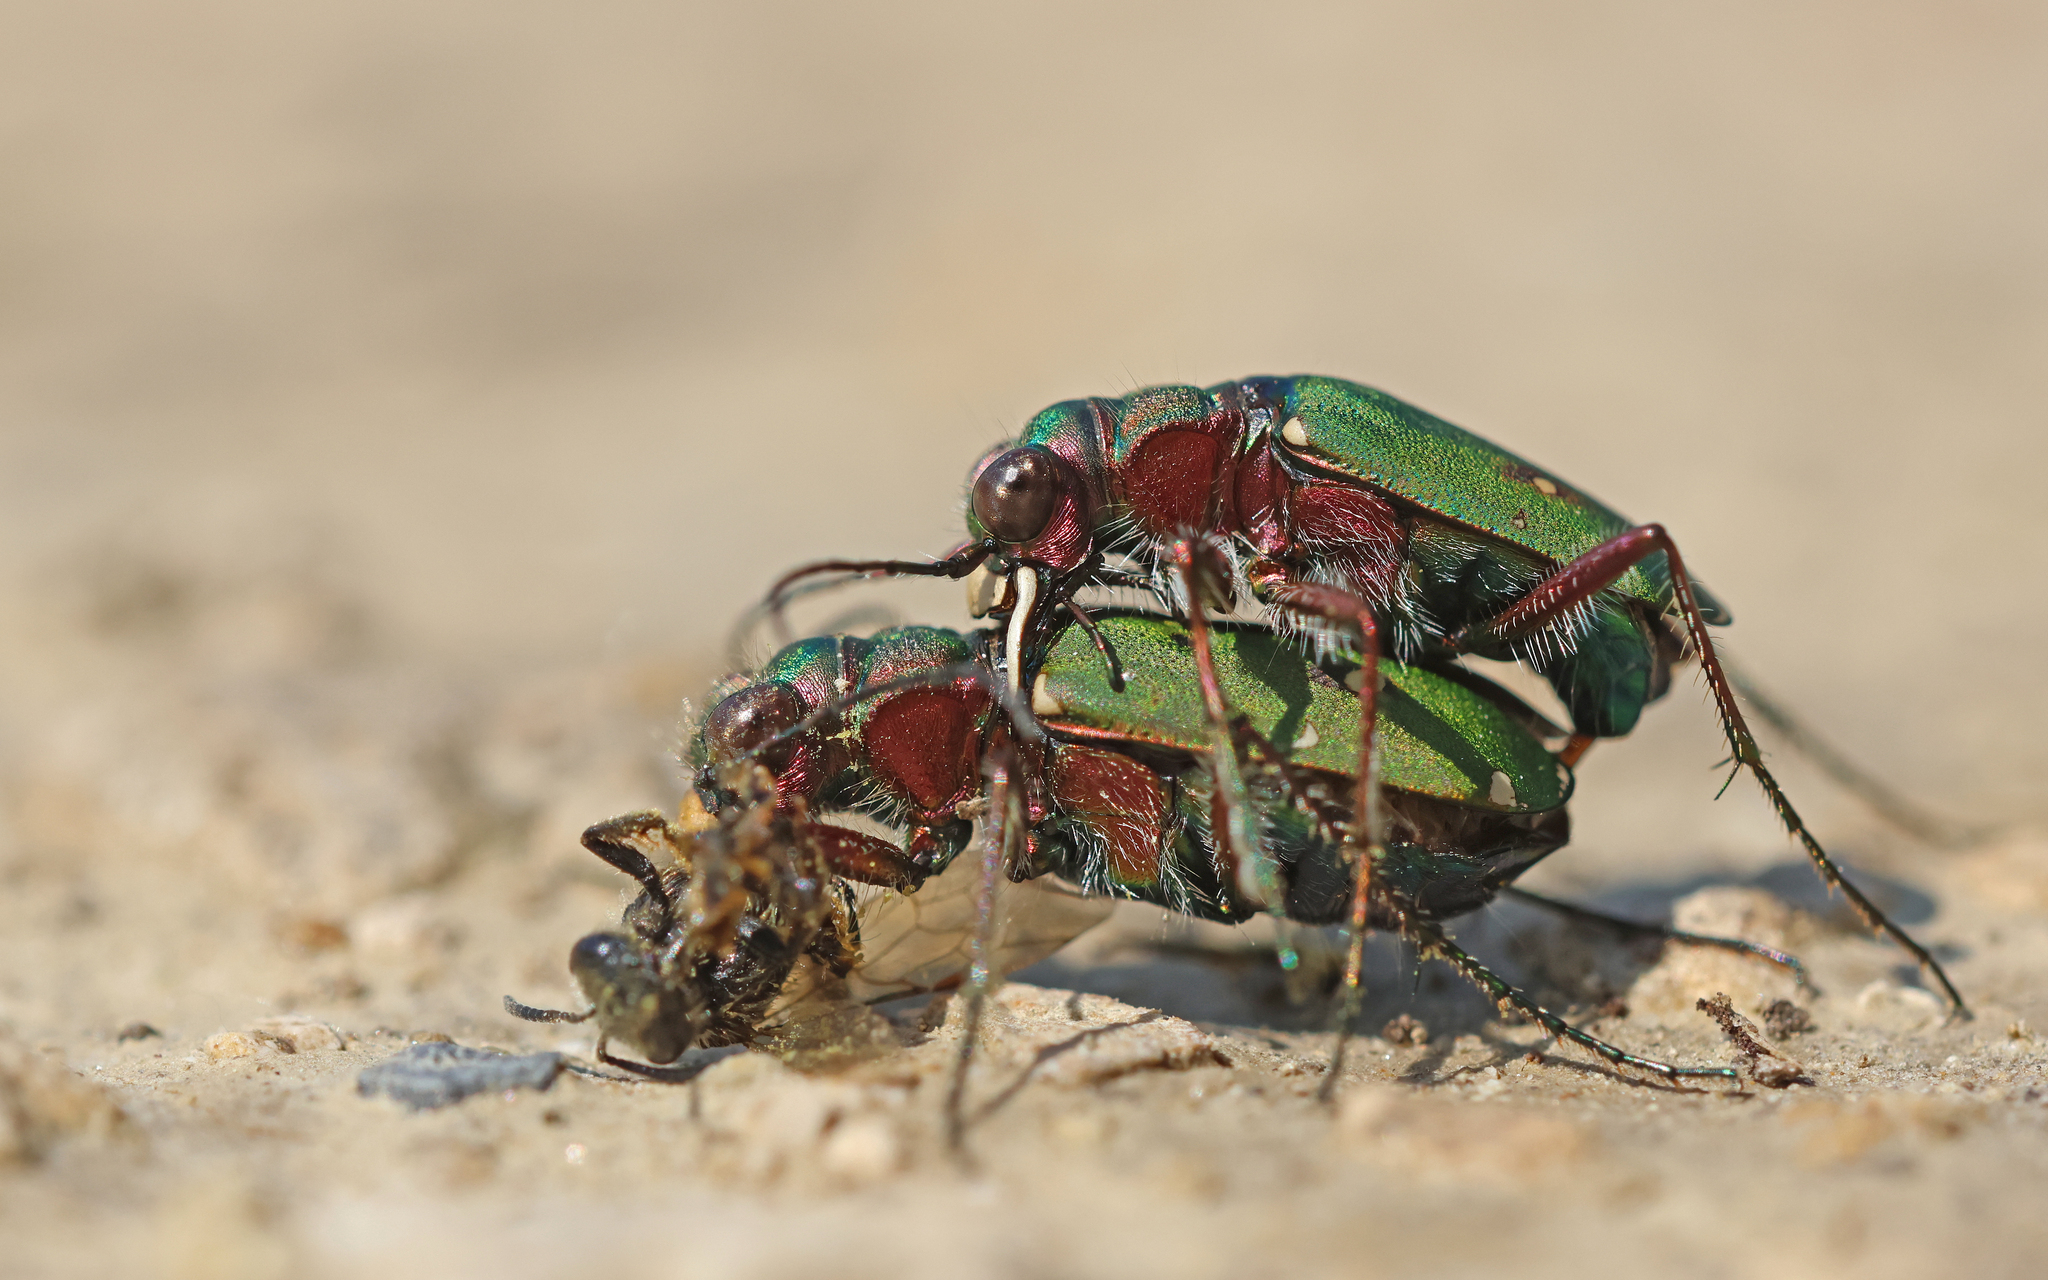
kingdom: Animalia
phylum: Arthropoda
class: Insecta
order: Coleoptera
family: Carabidae
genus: Cicindela
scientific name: Cicindela campestris
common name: Common tiger beetle
